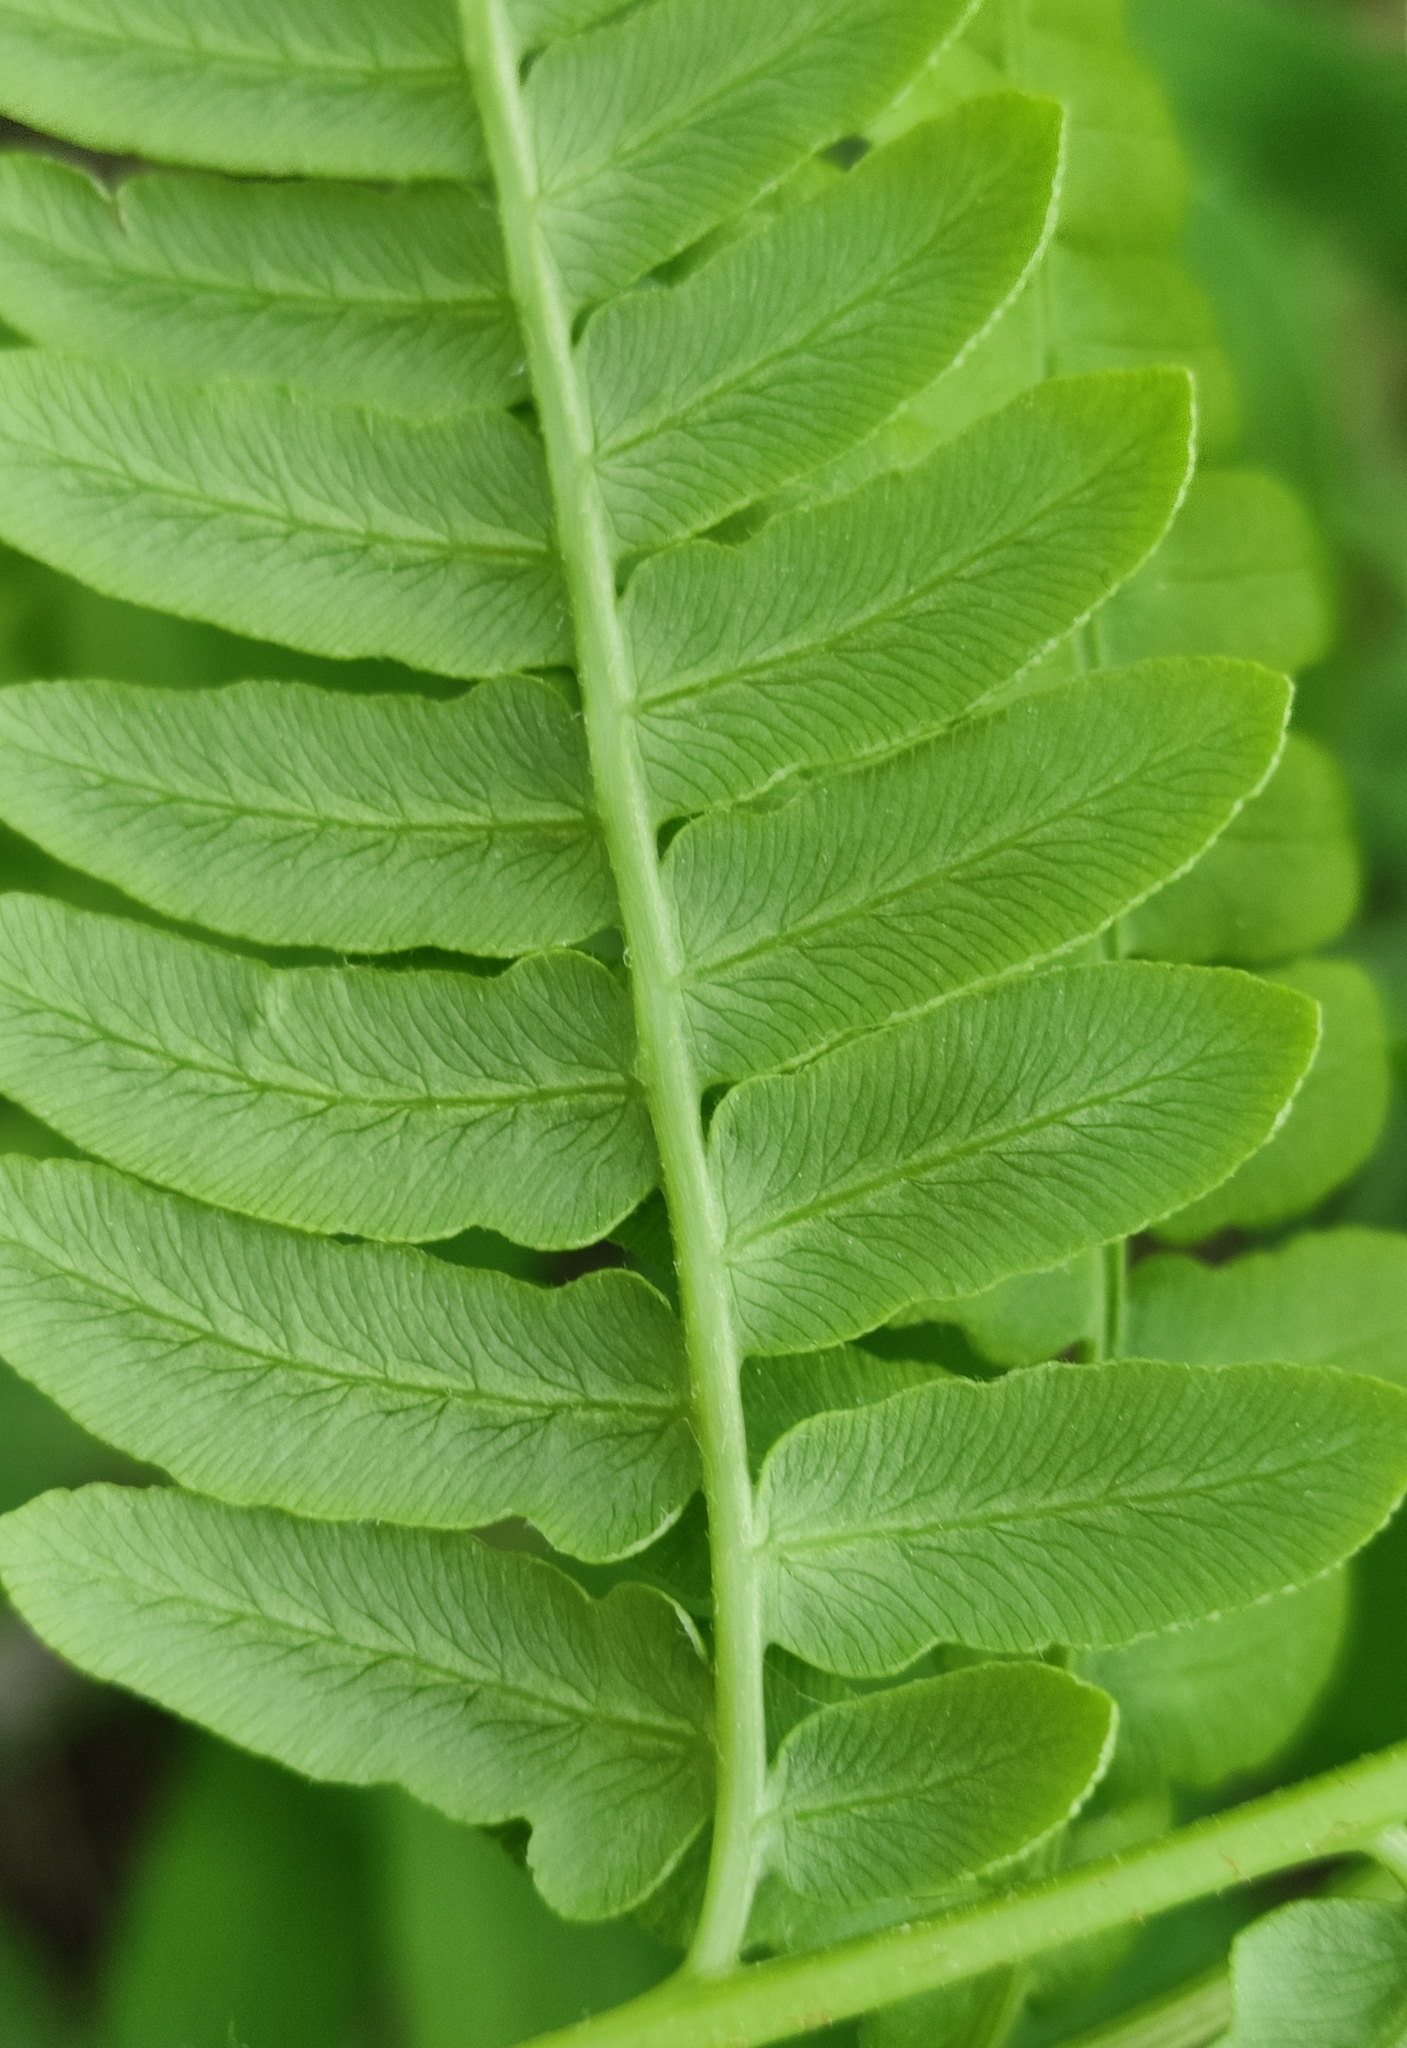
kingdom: Plantae
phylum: Tracheophyta
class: Polypodiopsida
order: Polypodiales
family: Dennstaedtiaceae
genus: Pteridium
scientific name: Pteridium aquilinum
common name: Bracken
